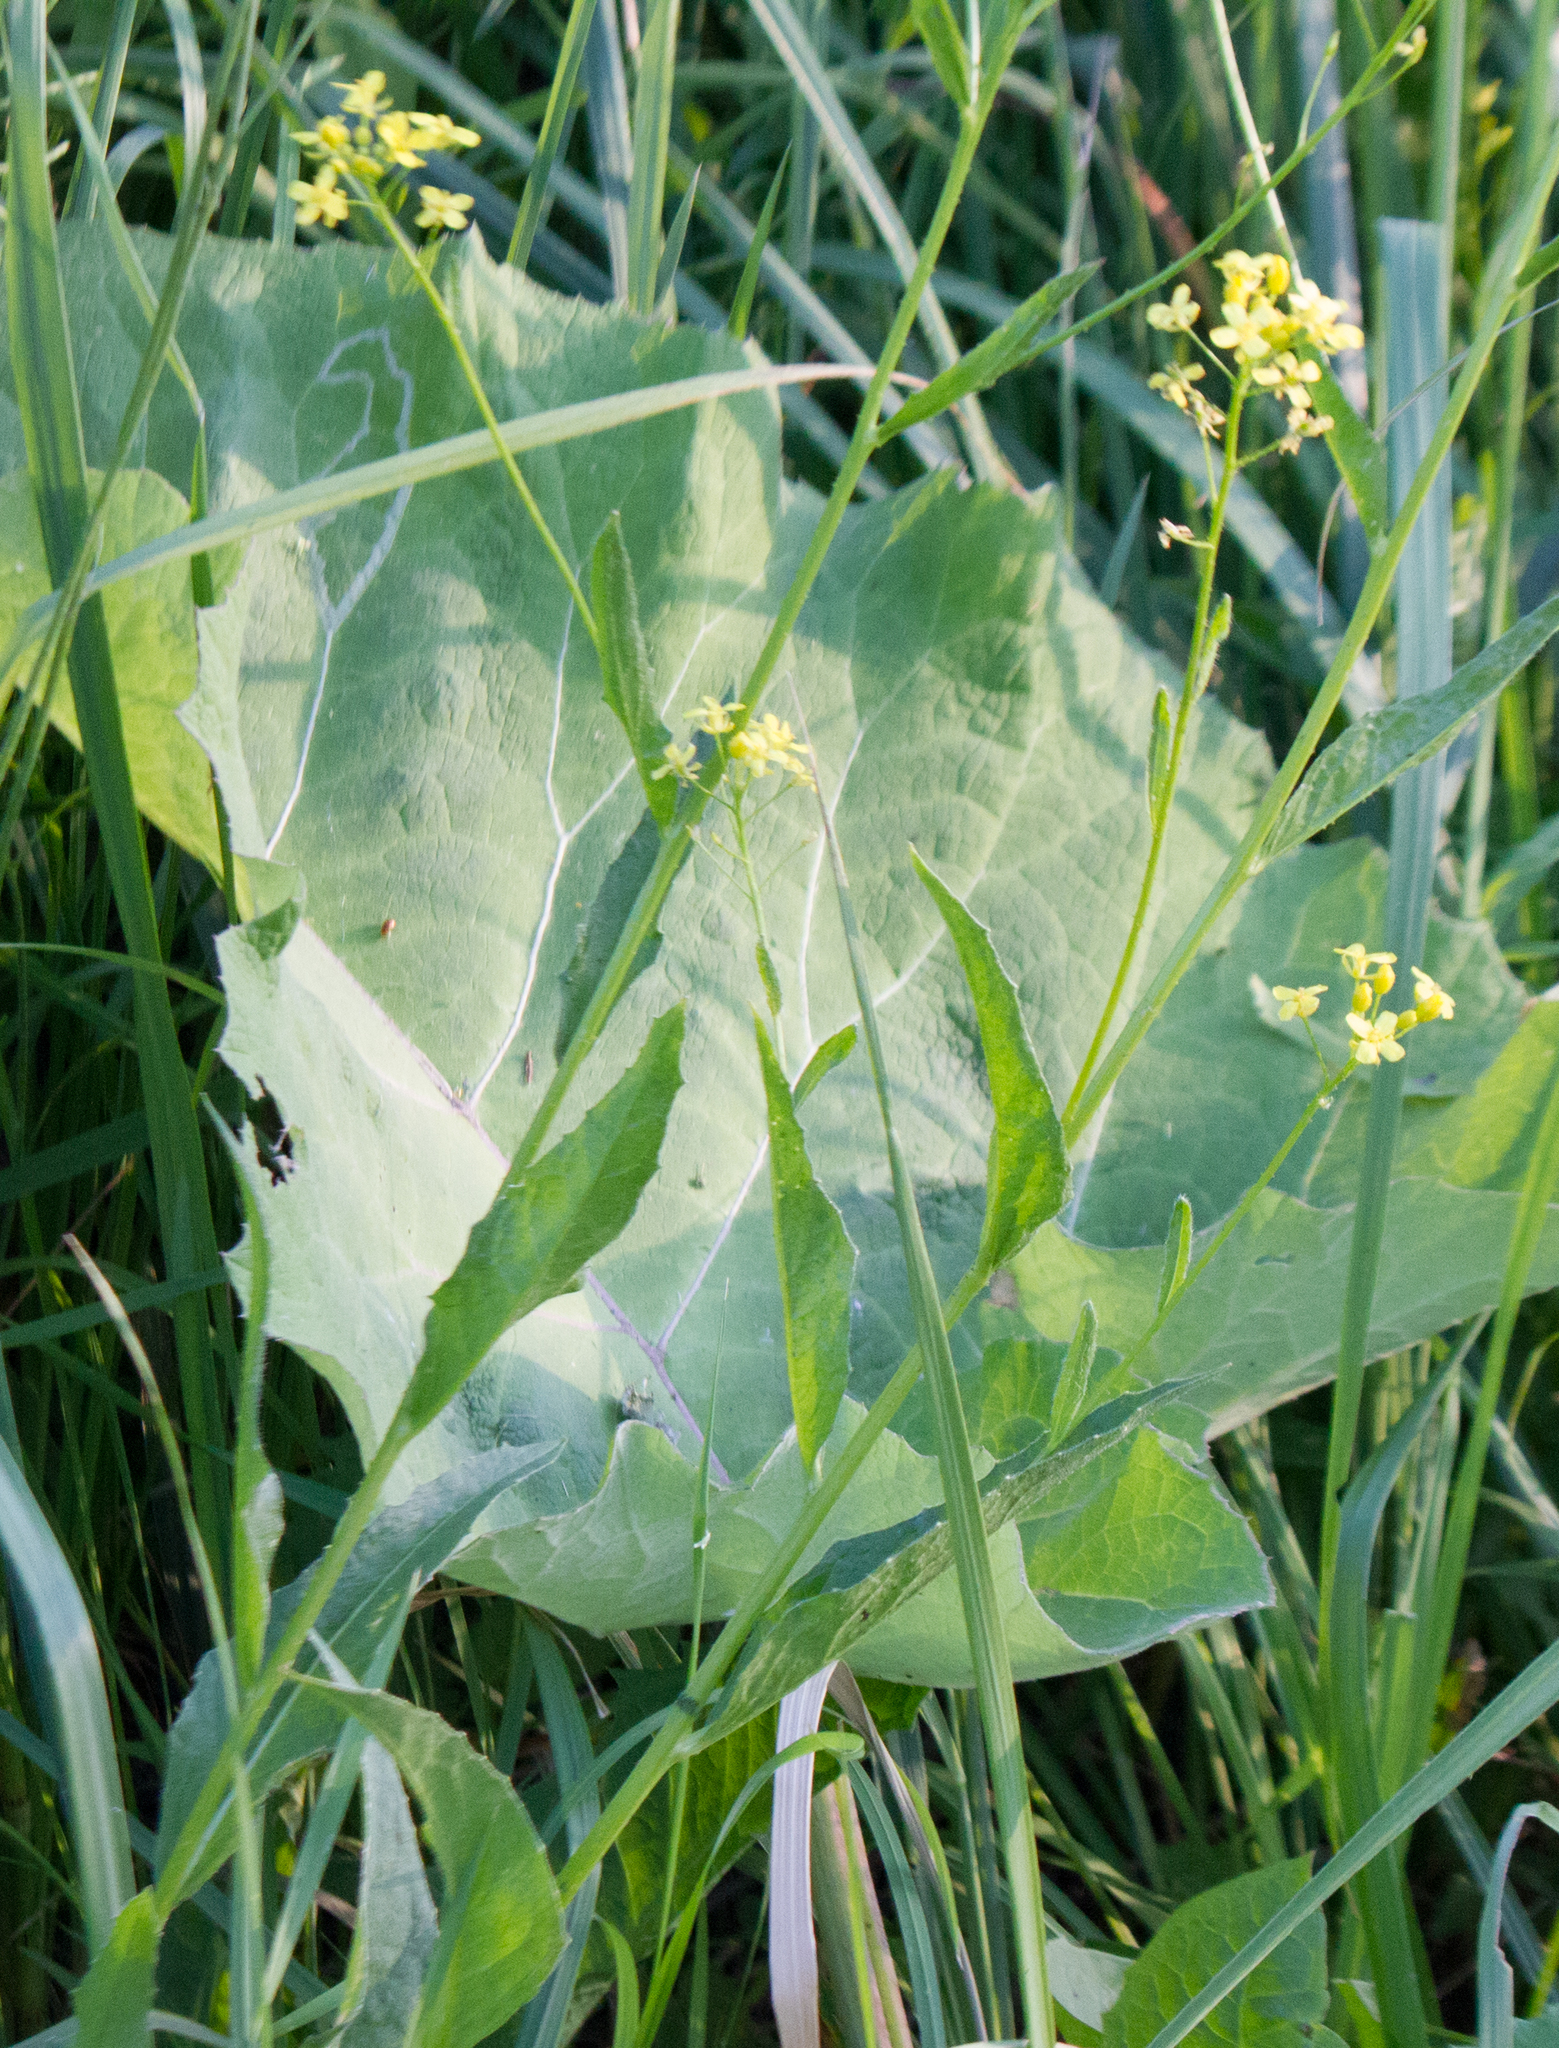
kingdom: Plantae
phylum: Tracheophyta
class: Magnoliopsida
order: Brassicales
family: Brassicaceae
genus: Bunias
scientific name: Bunias orientalis
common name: Warty-cabbage
